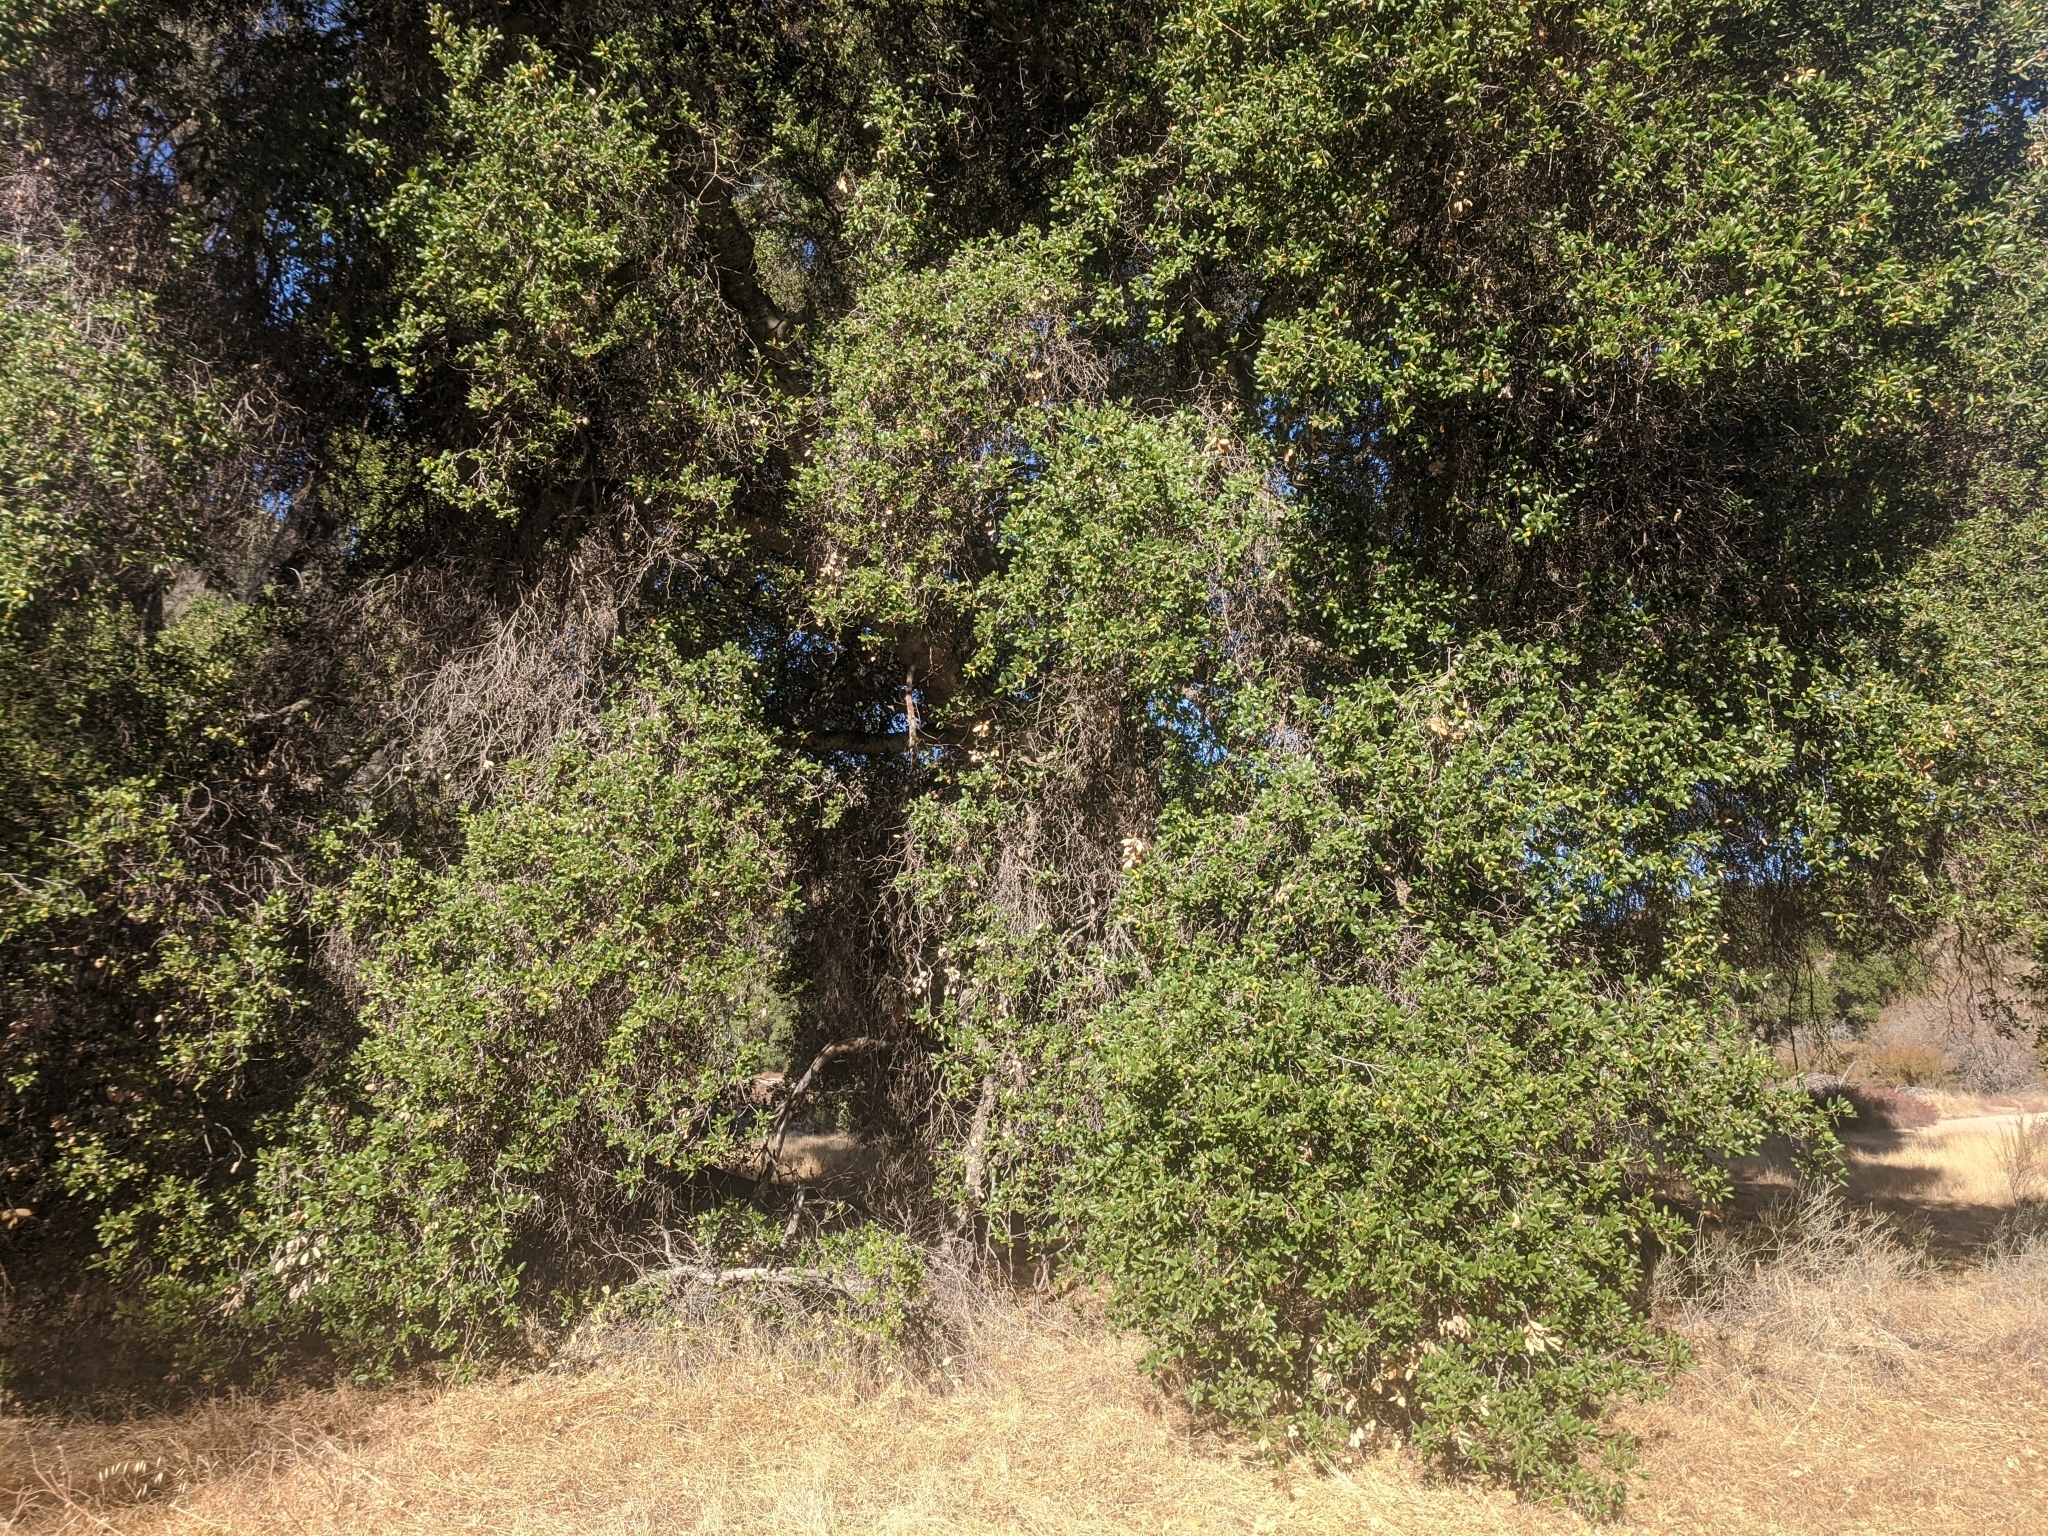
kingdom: Plantae
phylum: Tracheophyta
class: Magnoliopsida
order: Fagales
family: Fagaceae
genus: Quercus
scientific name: Quercus agrifolia
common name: California live oak
